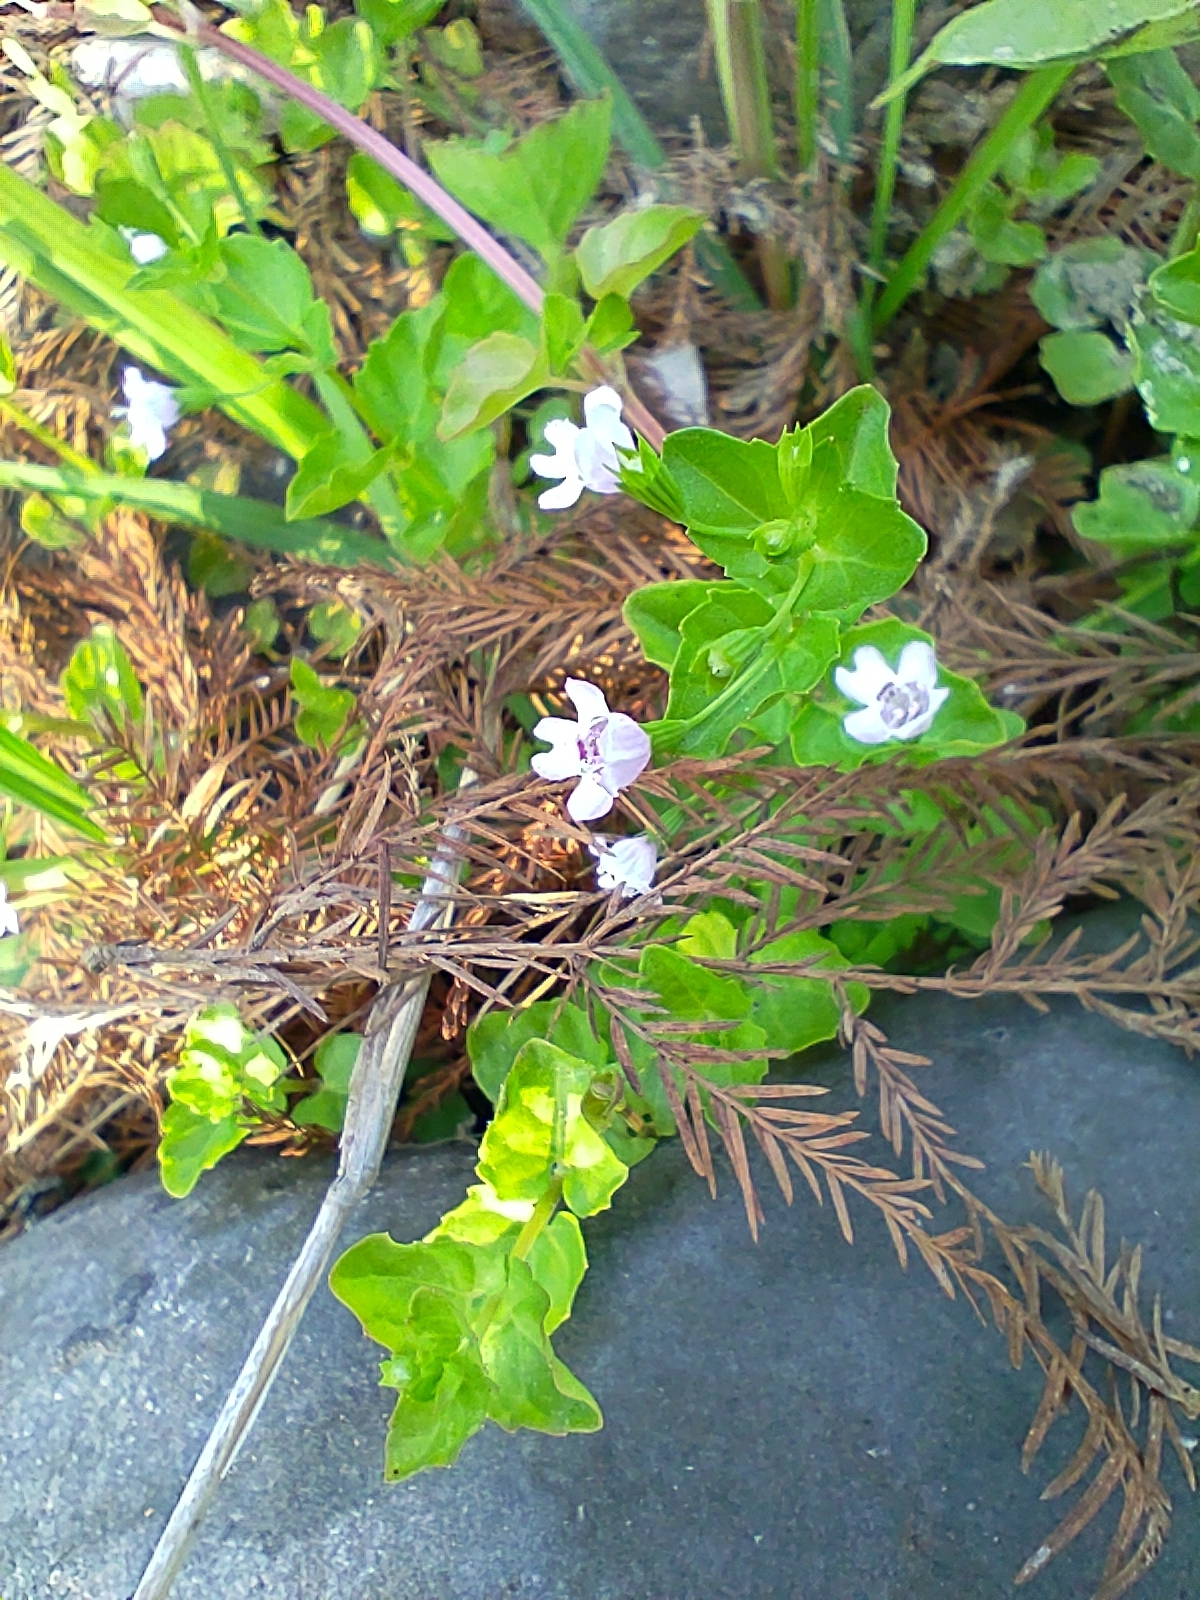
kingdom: Plantae
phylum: Tracheophyta
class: Magnoliopsida
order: Lamiales
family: Lamiaceae
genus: Clinopodium
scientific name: Clinopodium brownei
